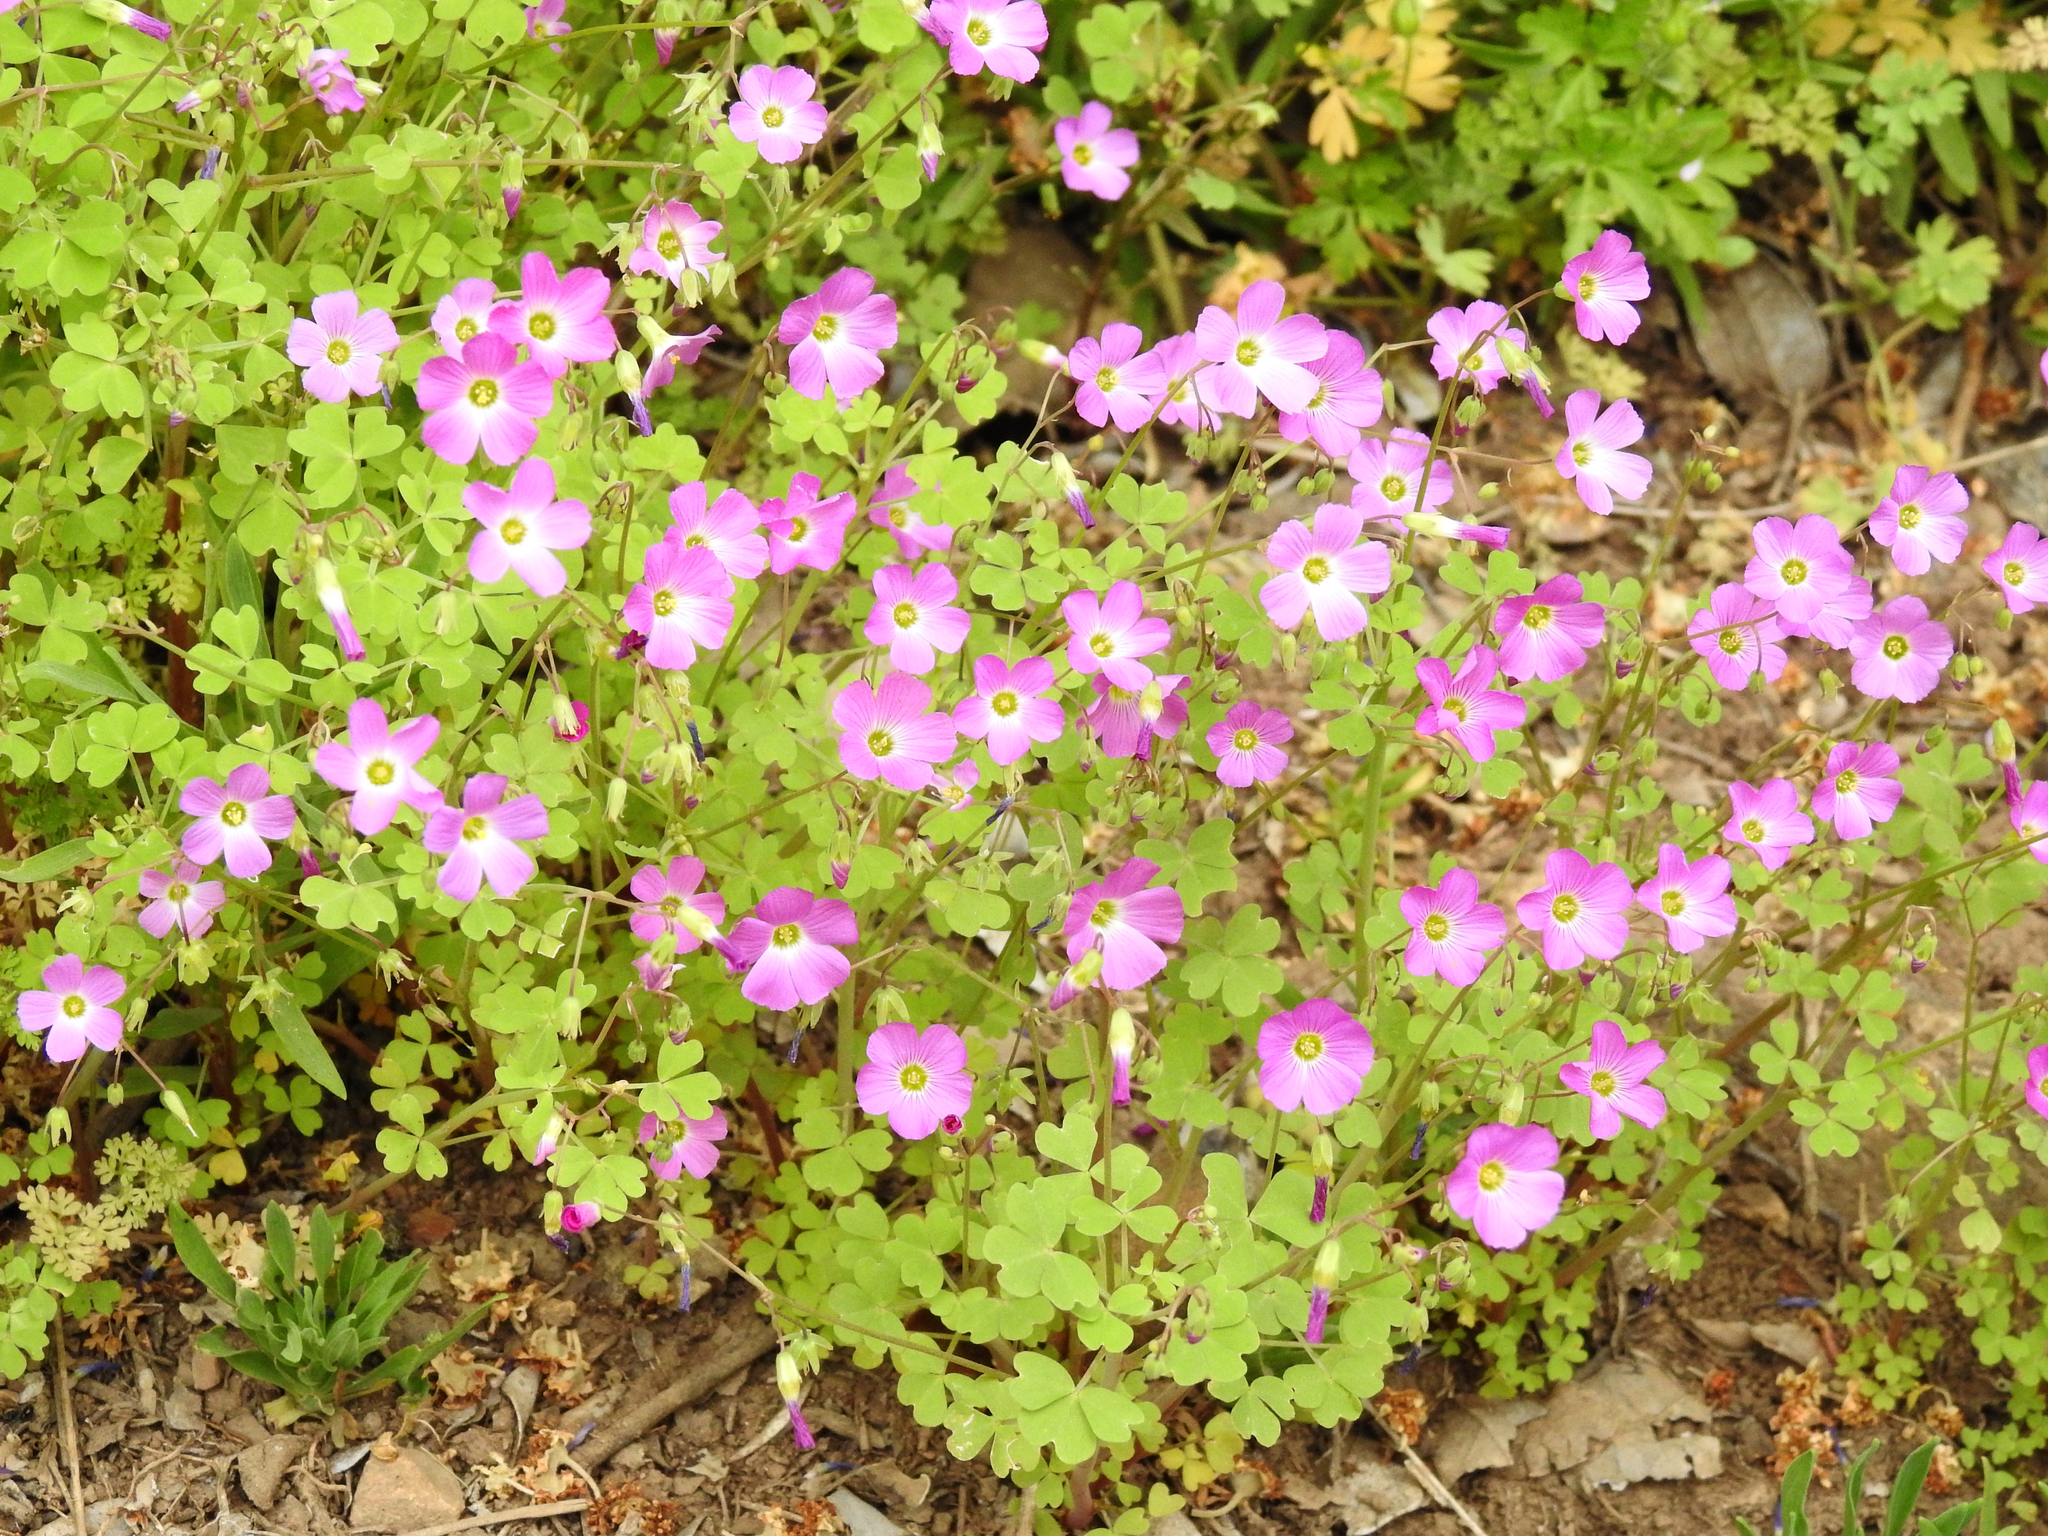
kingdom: Plantae
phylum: Tracheophyta
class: Magnoliopsida
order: Oxalidales
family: Oxalidaceae
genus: Oxalis
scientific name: Oxalis rosea
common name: Annual pink-sorrel
